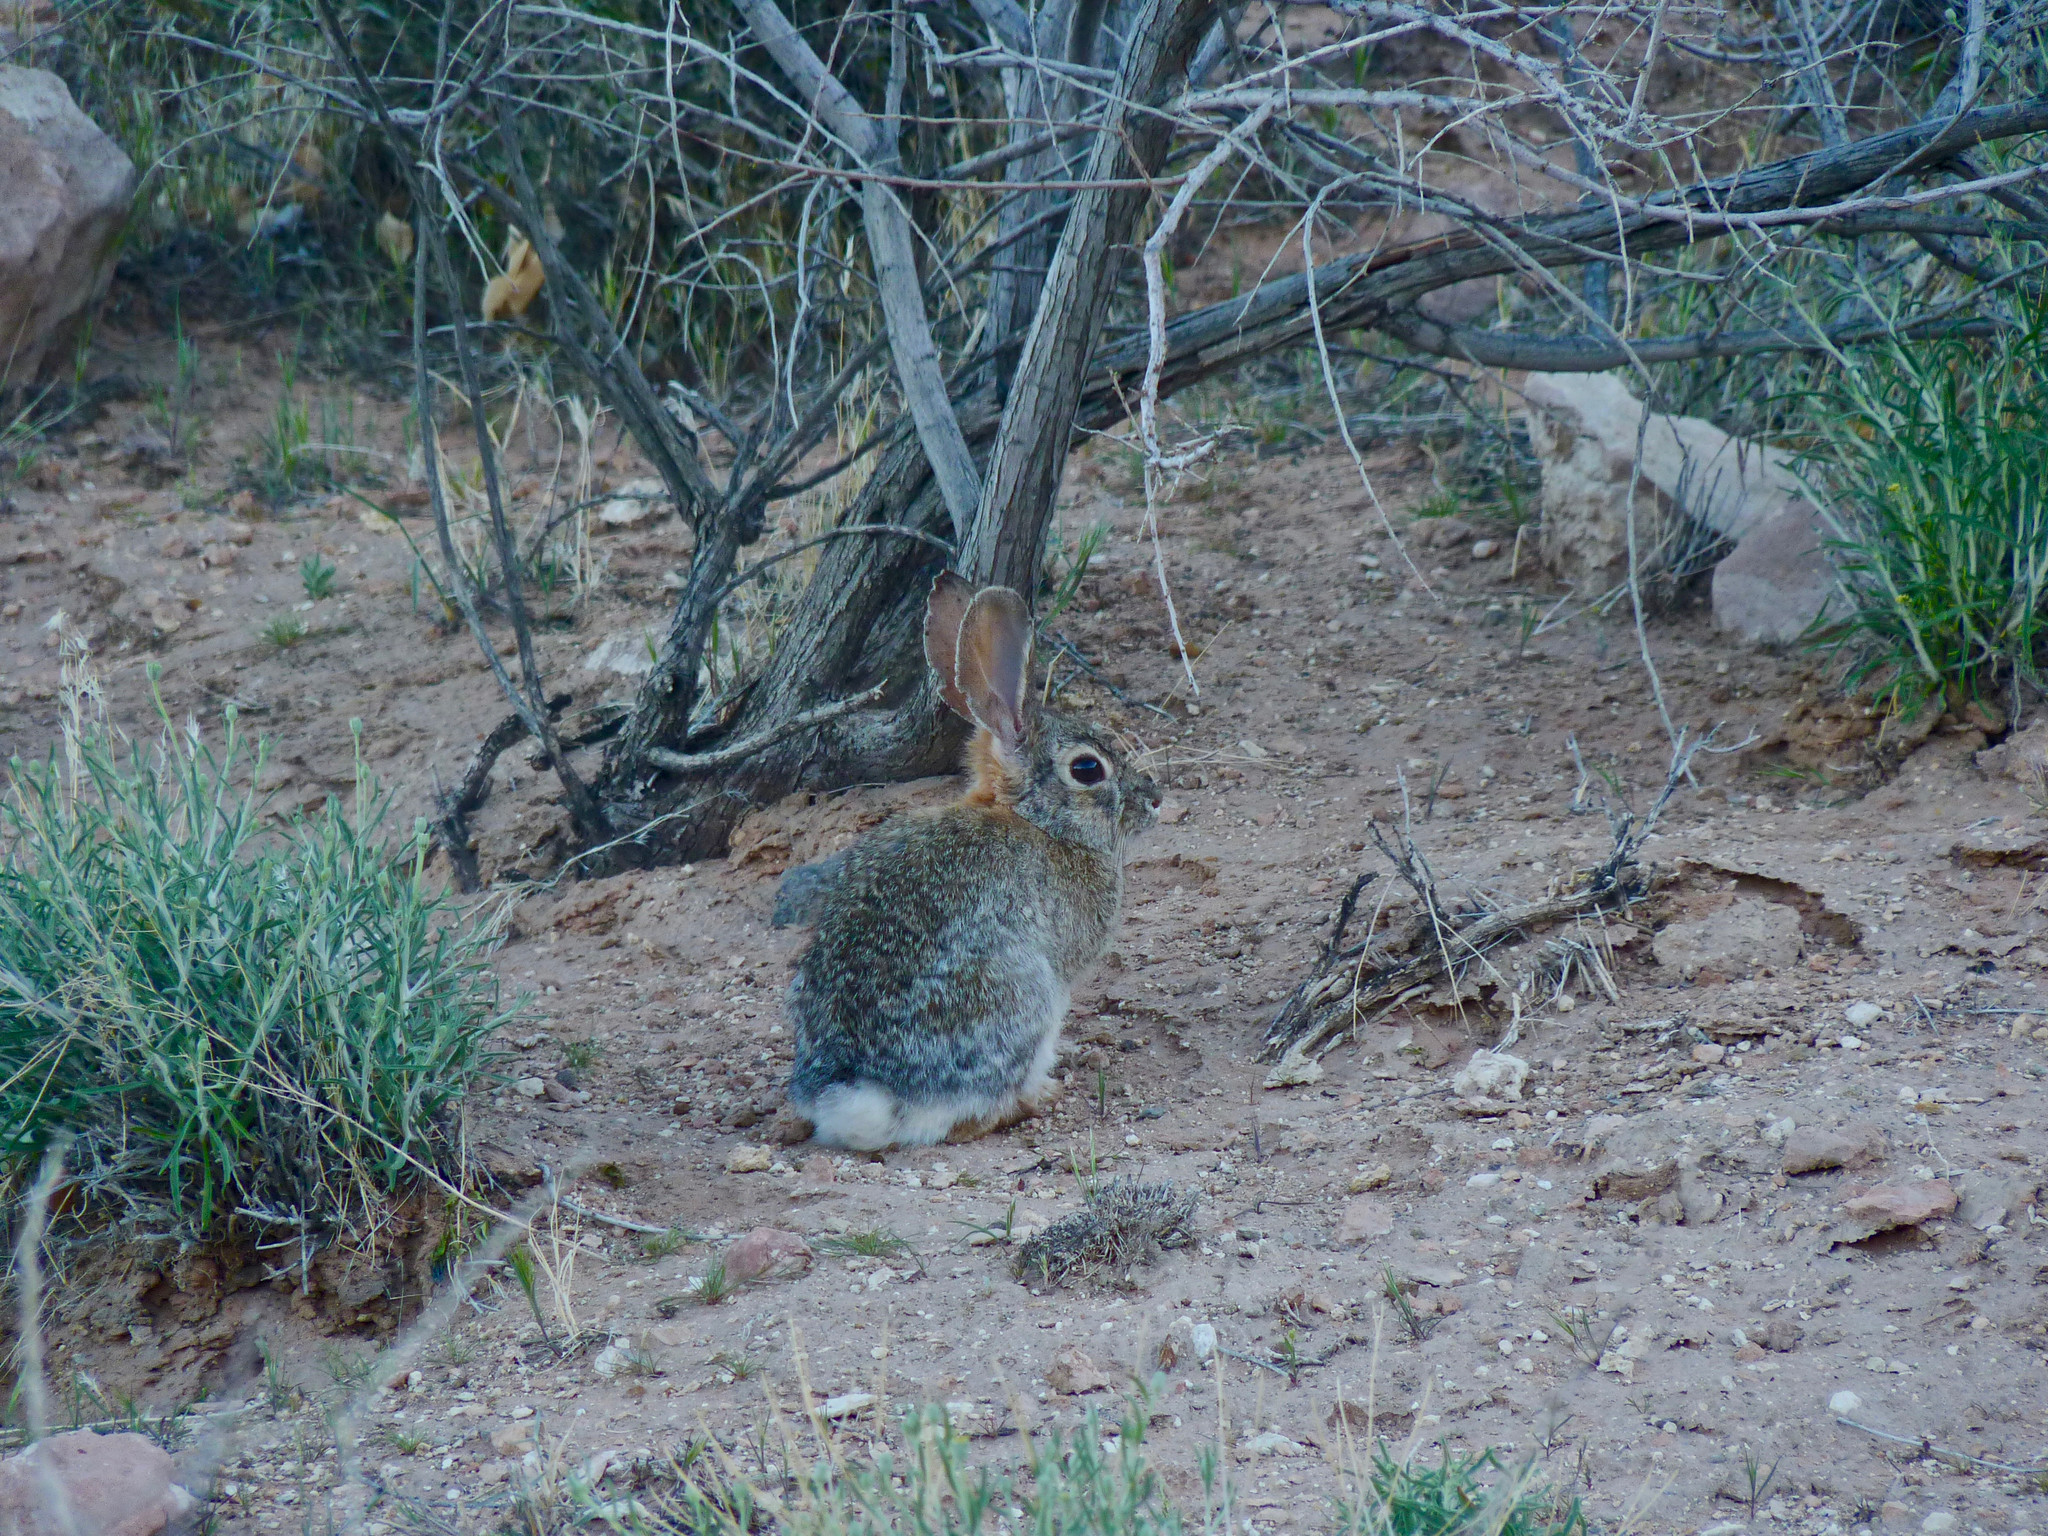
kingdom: Animalia
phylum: Chordata
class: Mammalia
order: Lagomorpha
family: Leporidae
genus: Sylvilagus
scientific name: Sylvilagus audubonii
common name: Desert cottontail
